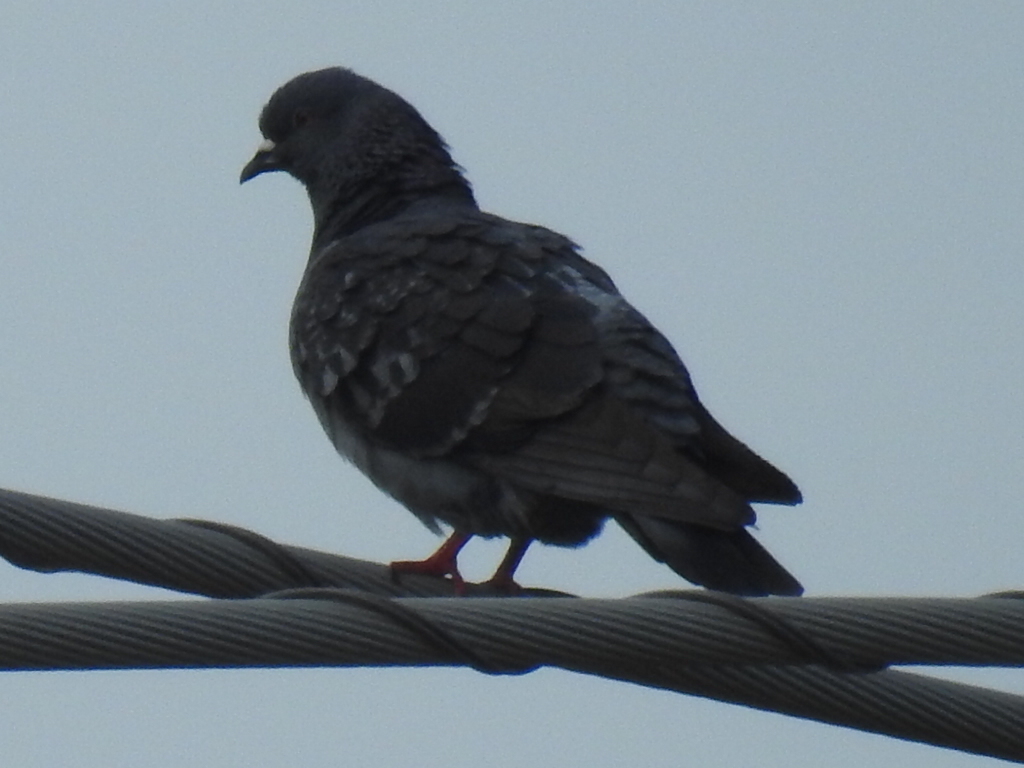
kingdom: Animalia
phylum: Chordata
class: Aves
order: Columbiformes
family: Columbidae
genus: Columba
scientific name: Columba livia
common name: Rock pigeon
